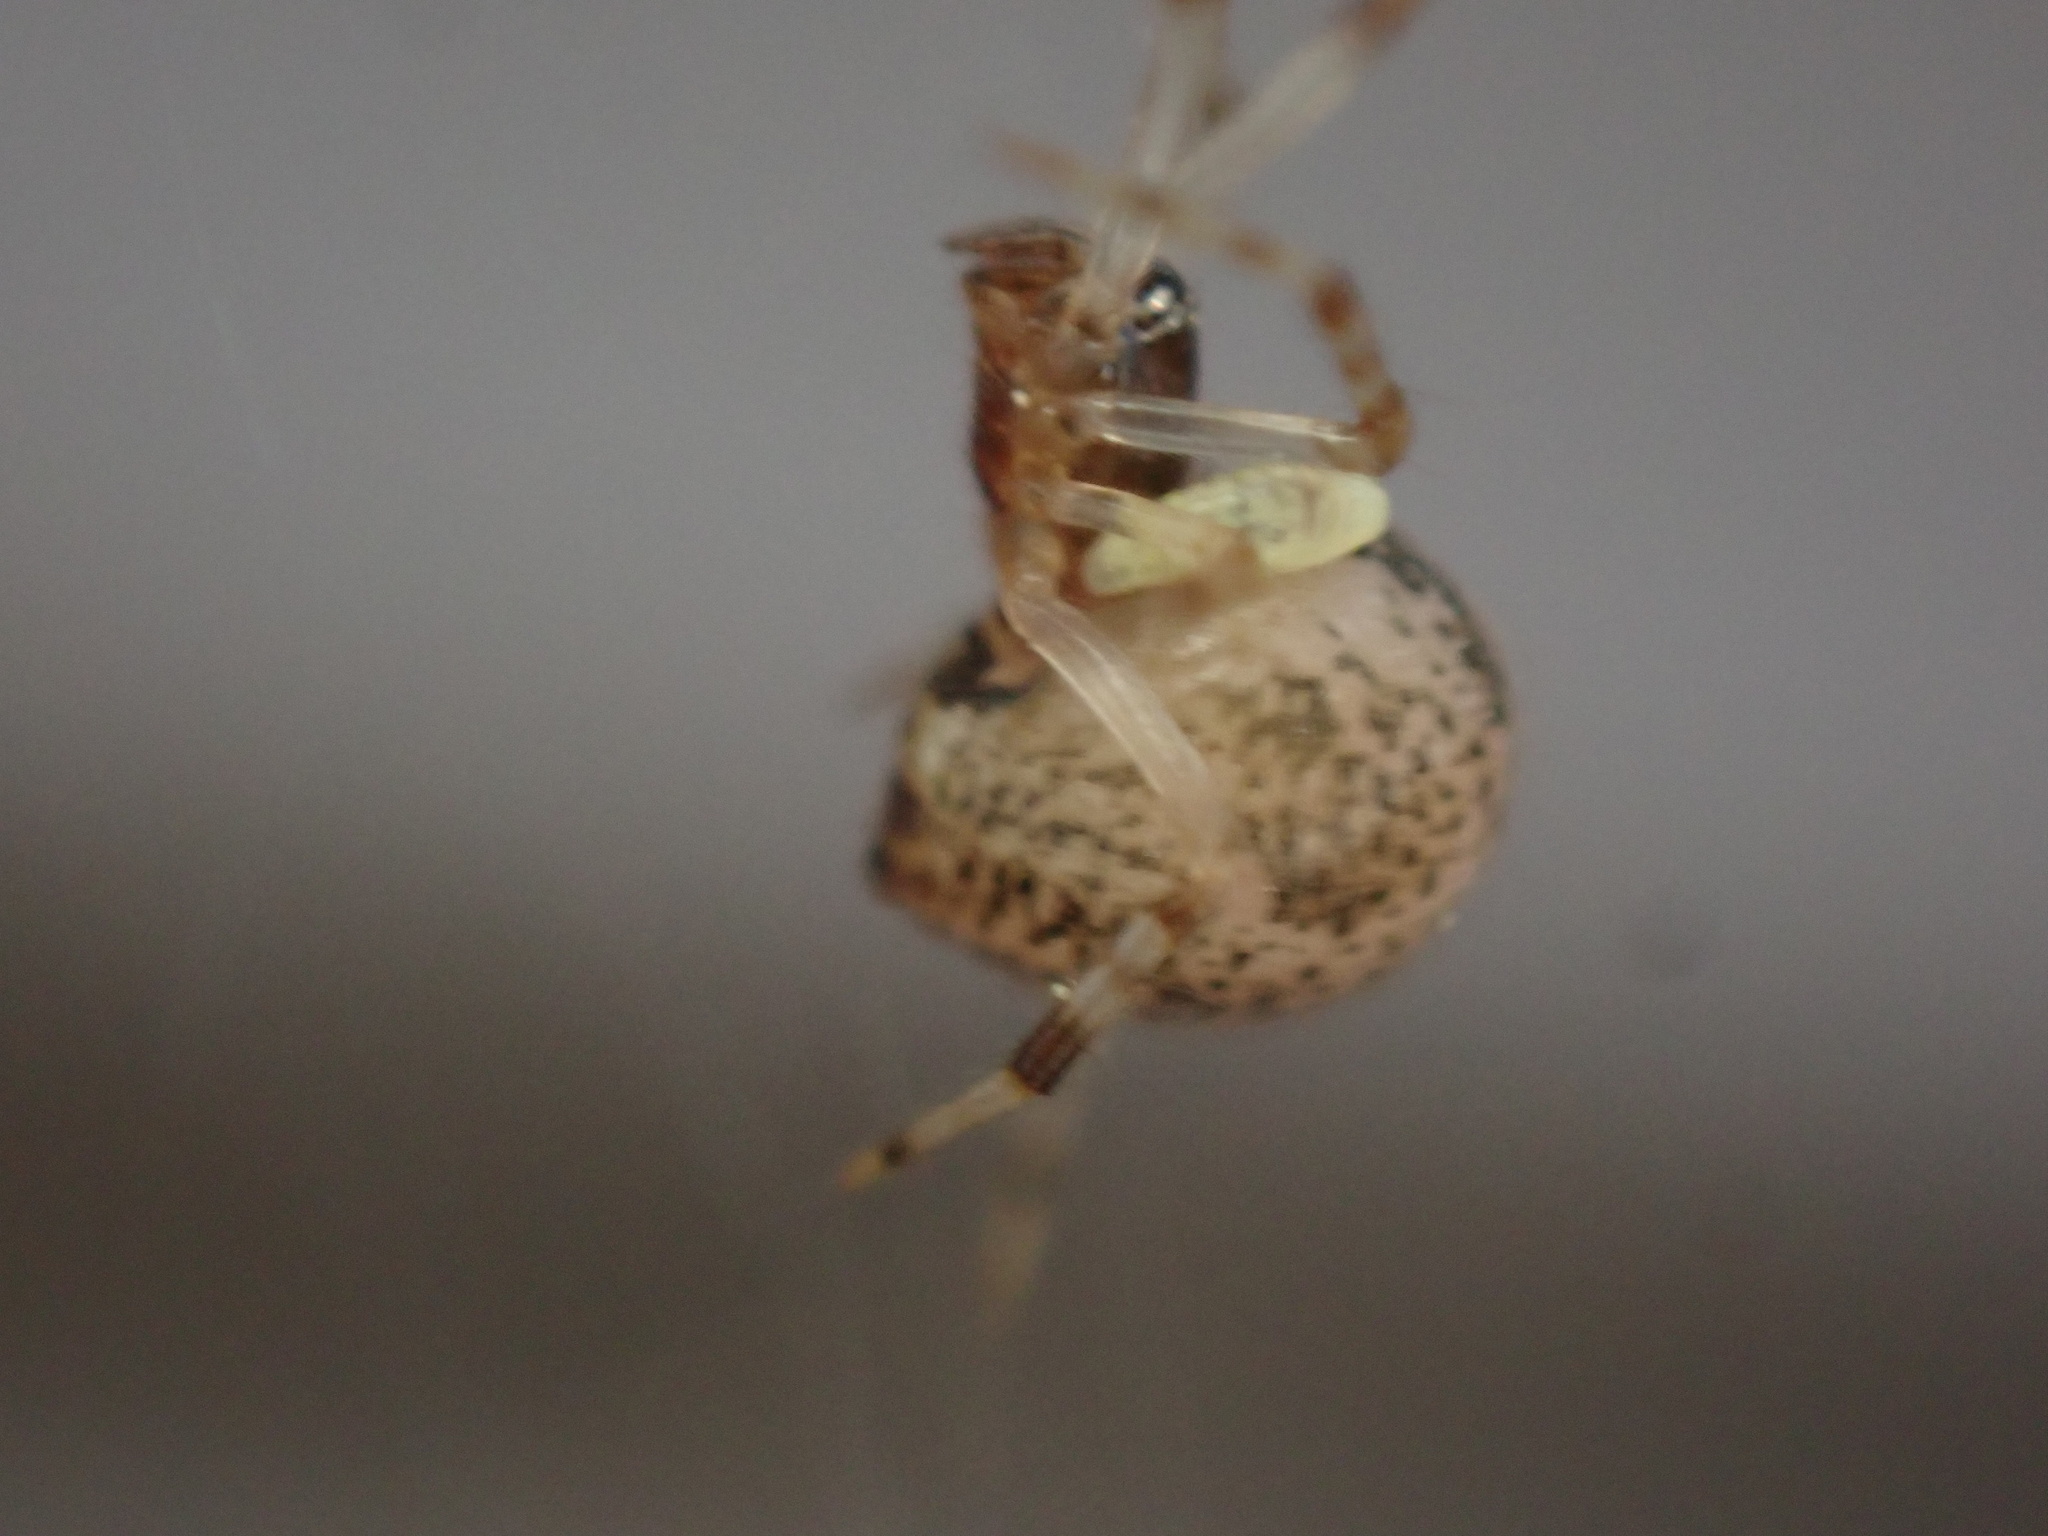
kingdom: Animalia
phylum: Arthropoda
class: Arachnida
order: Araneae
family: Theridiidae
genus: Parasteatoda
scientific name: Parasteatoda tepidariorum
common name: Common house spider
